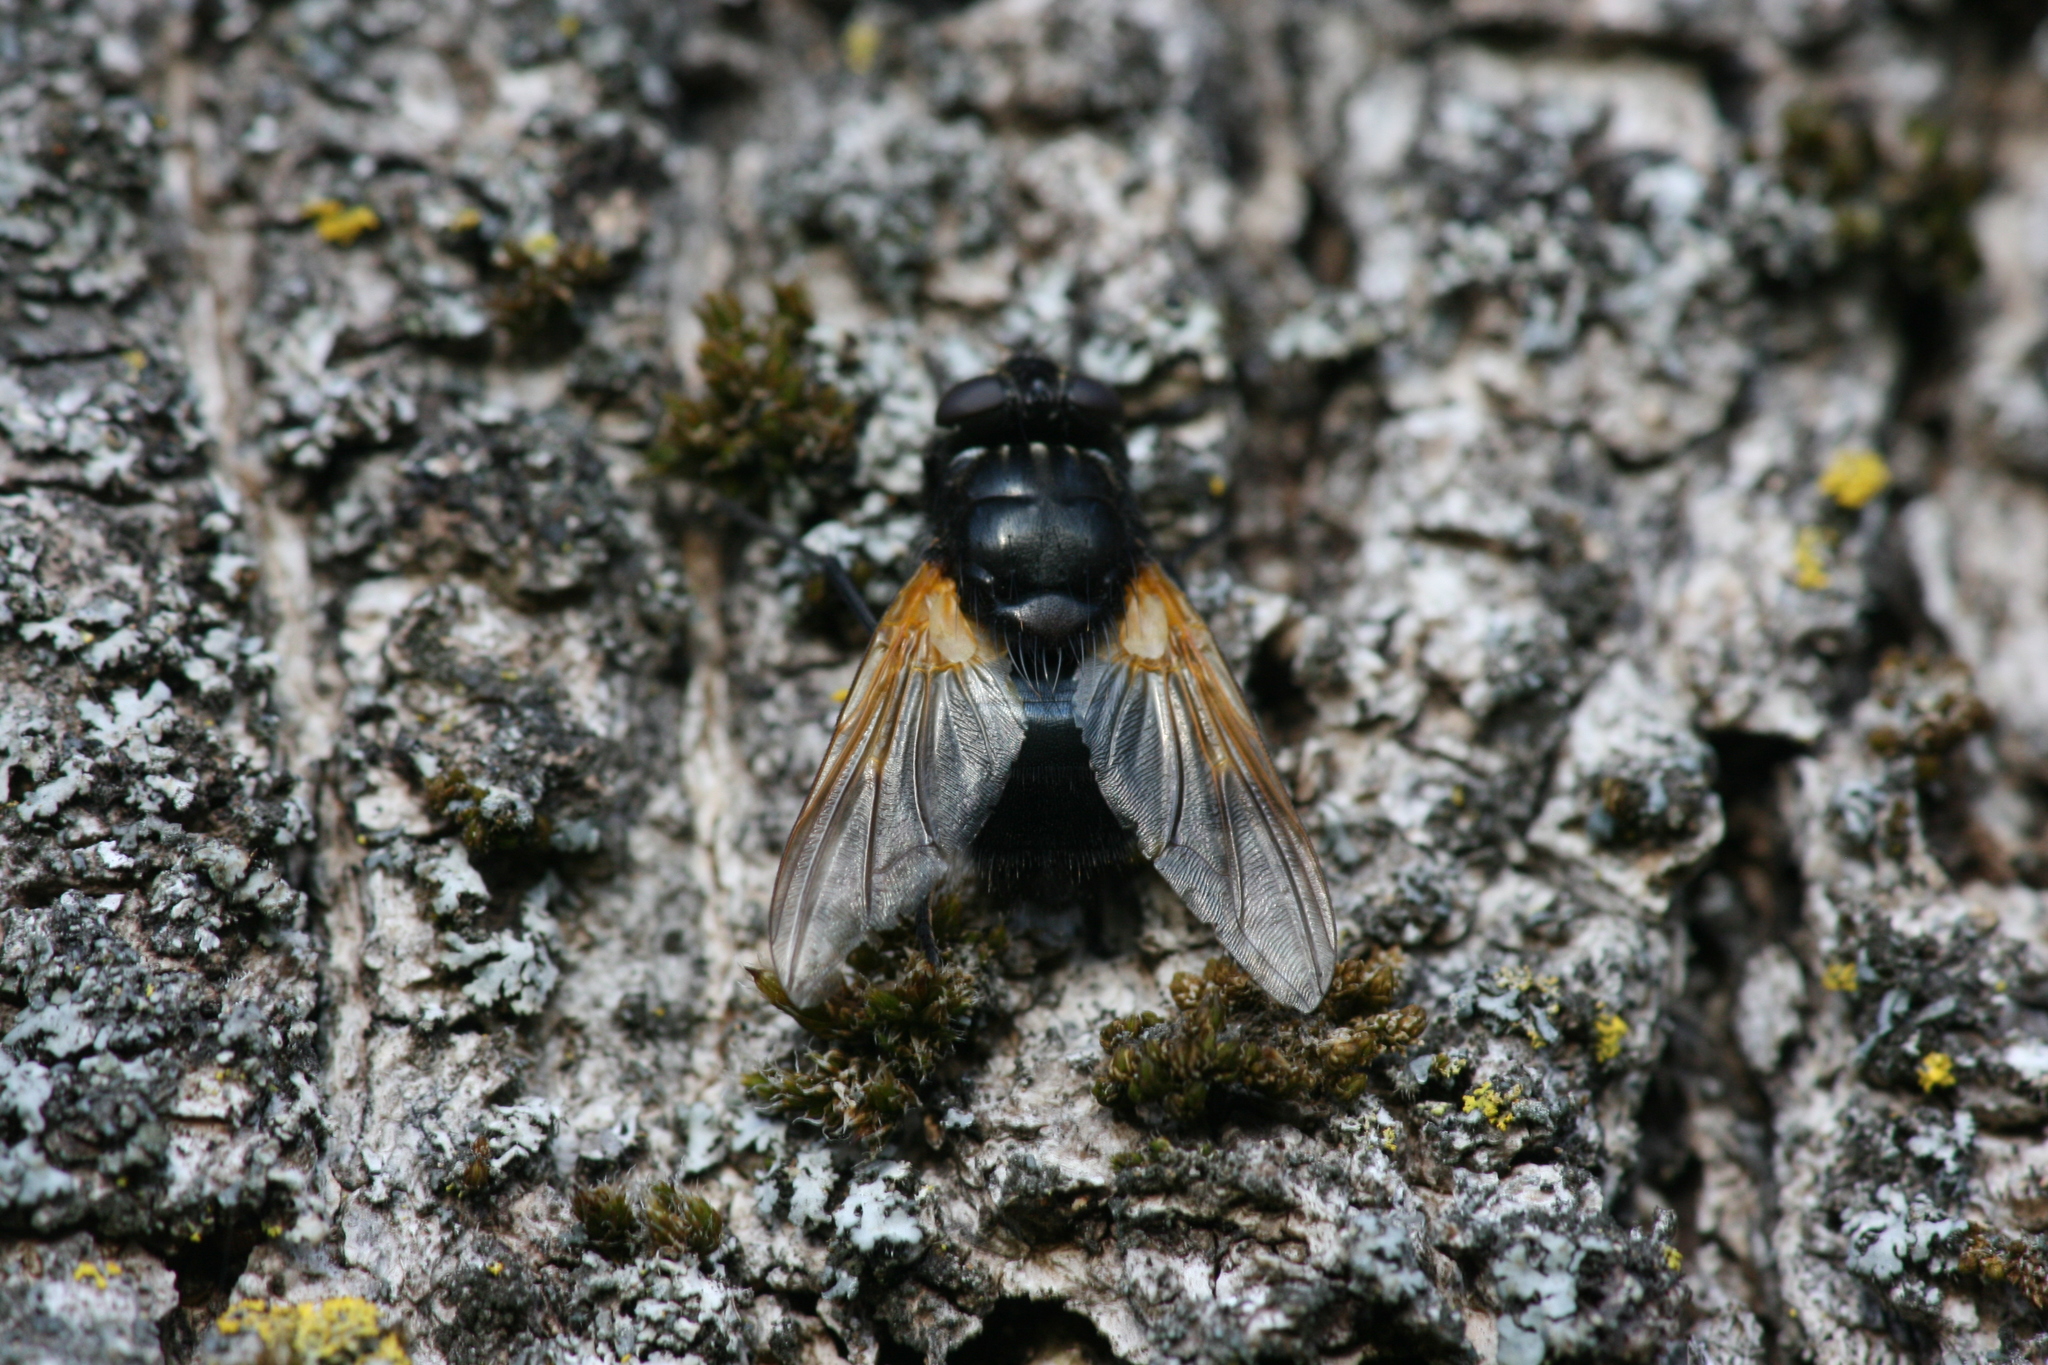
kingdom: Animalia
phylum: Arthropoda
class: Insecta
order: Diptera
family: Muscidae
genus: Mesembrina
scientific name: Mesembrina meridiana
